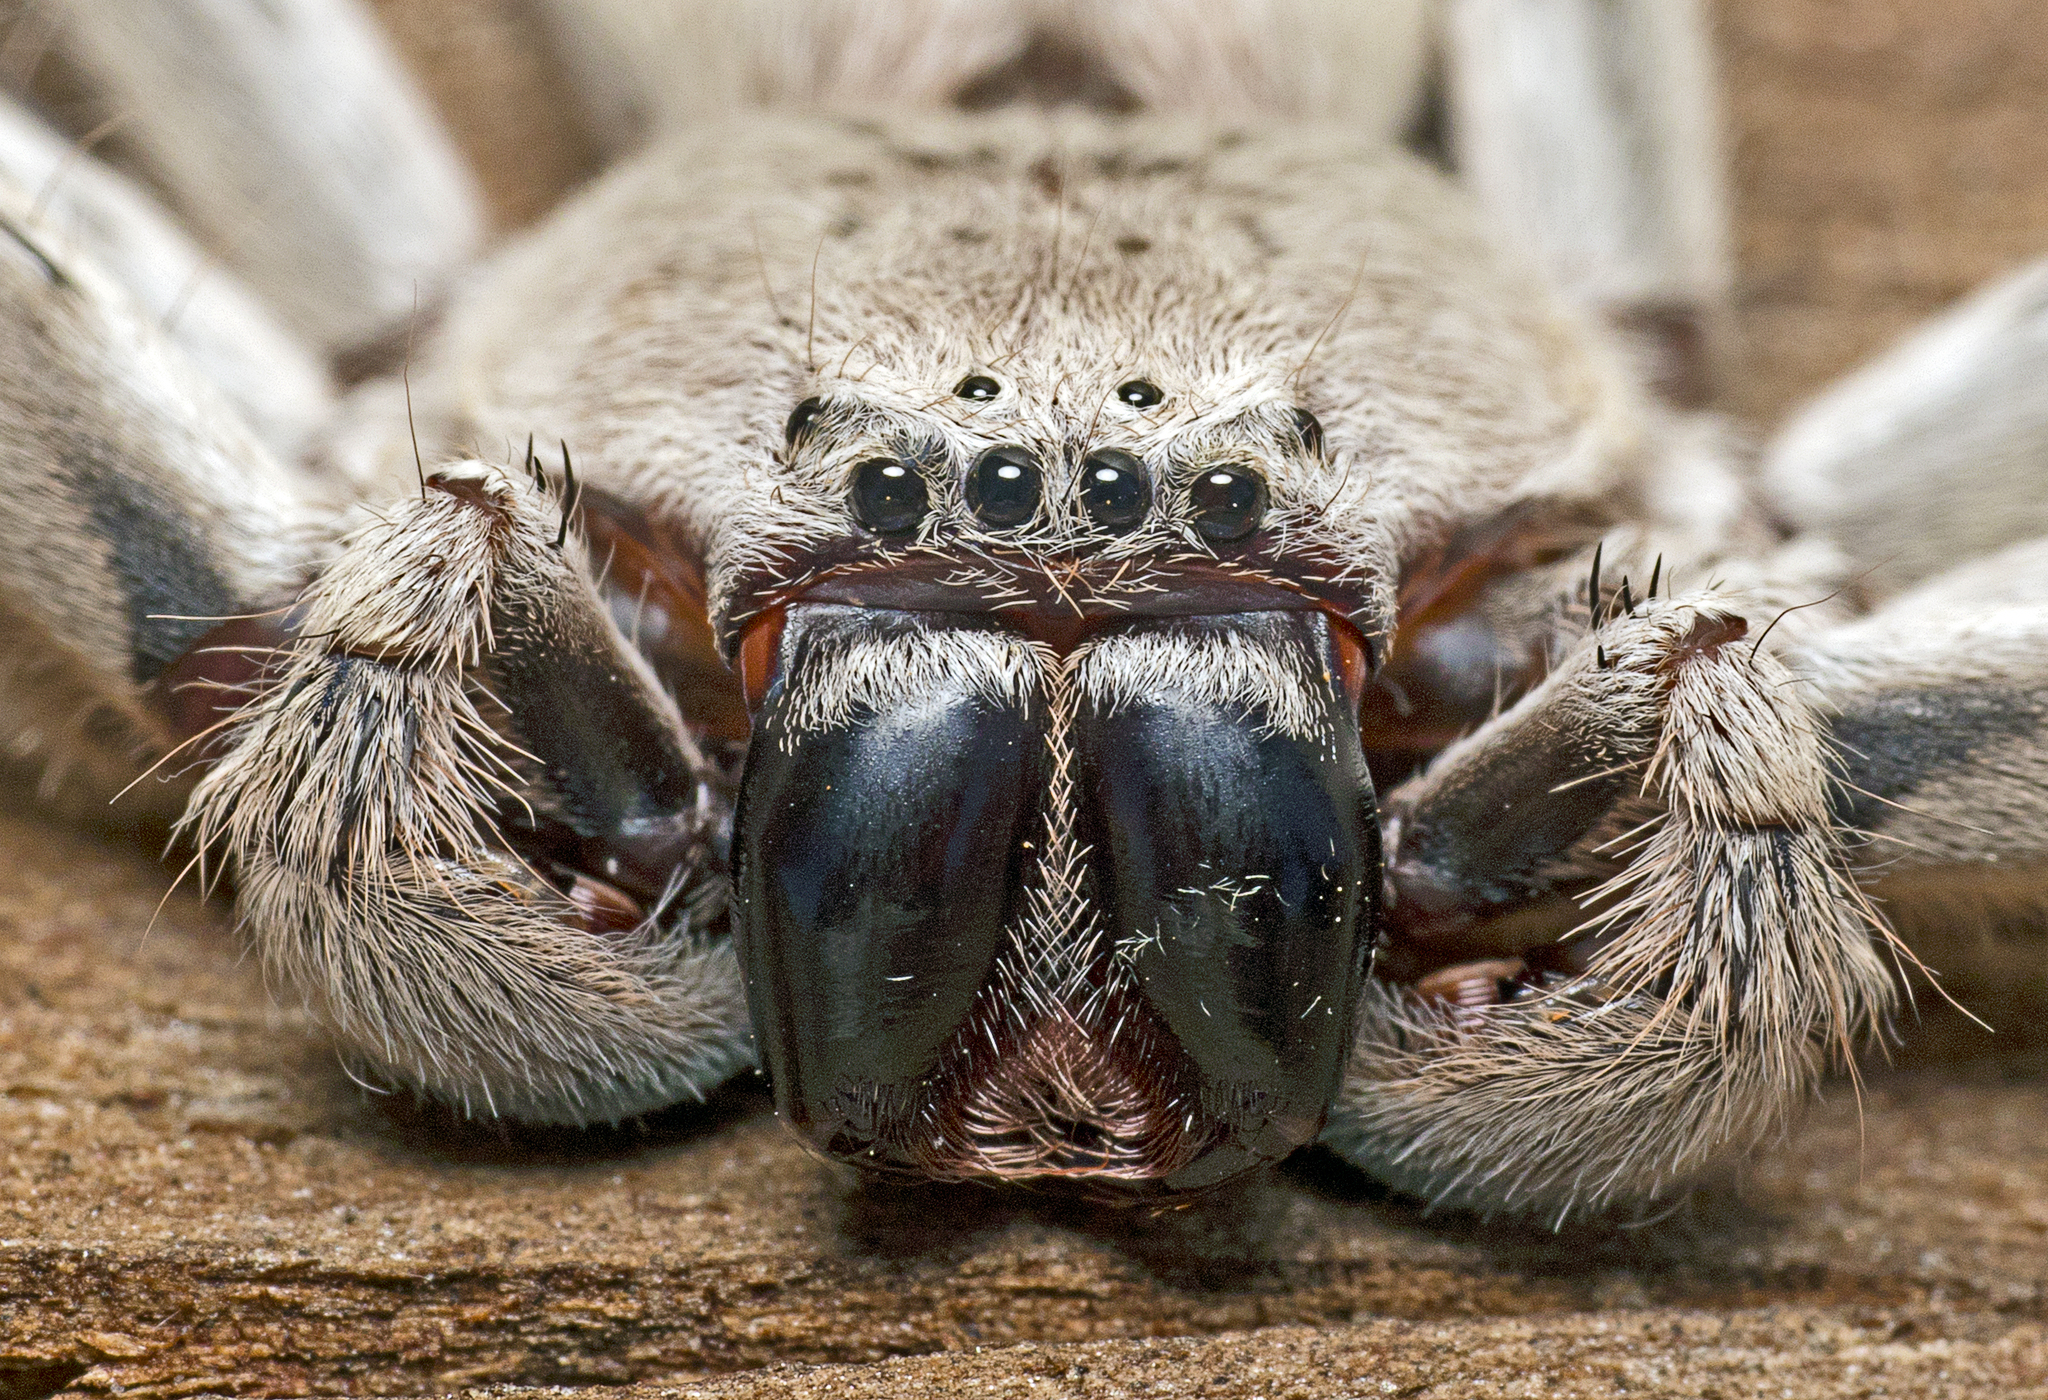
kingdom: Animalia
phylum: Arthropoda
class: Arachnida
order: Araneae
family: Sparassidae
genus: Isopeda
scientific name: Isopeda vasta
